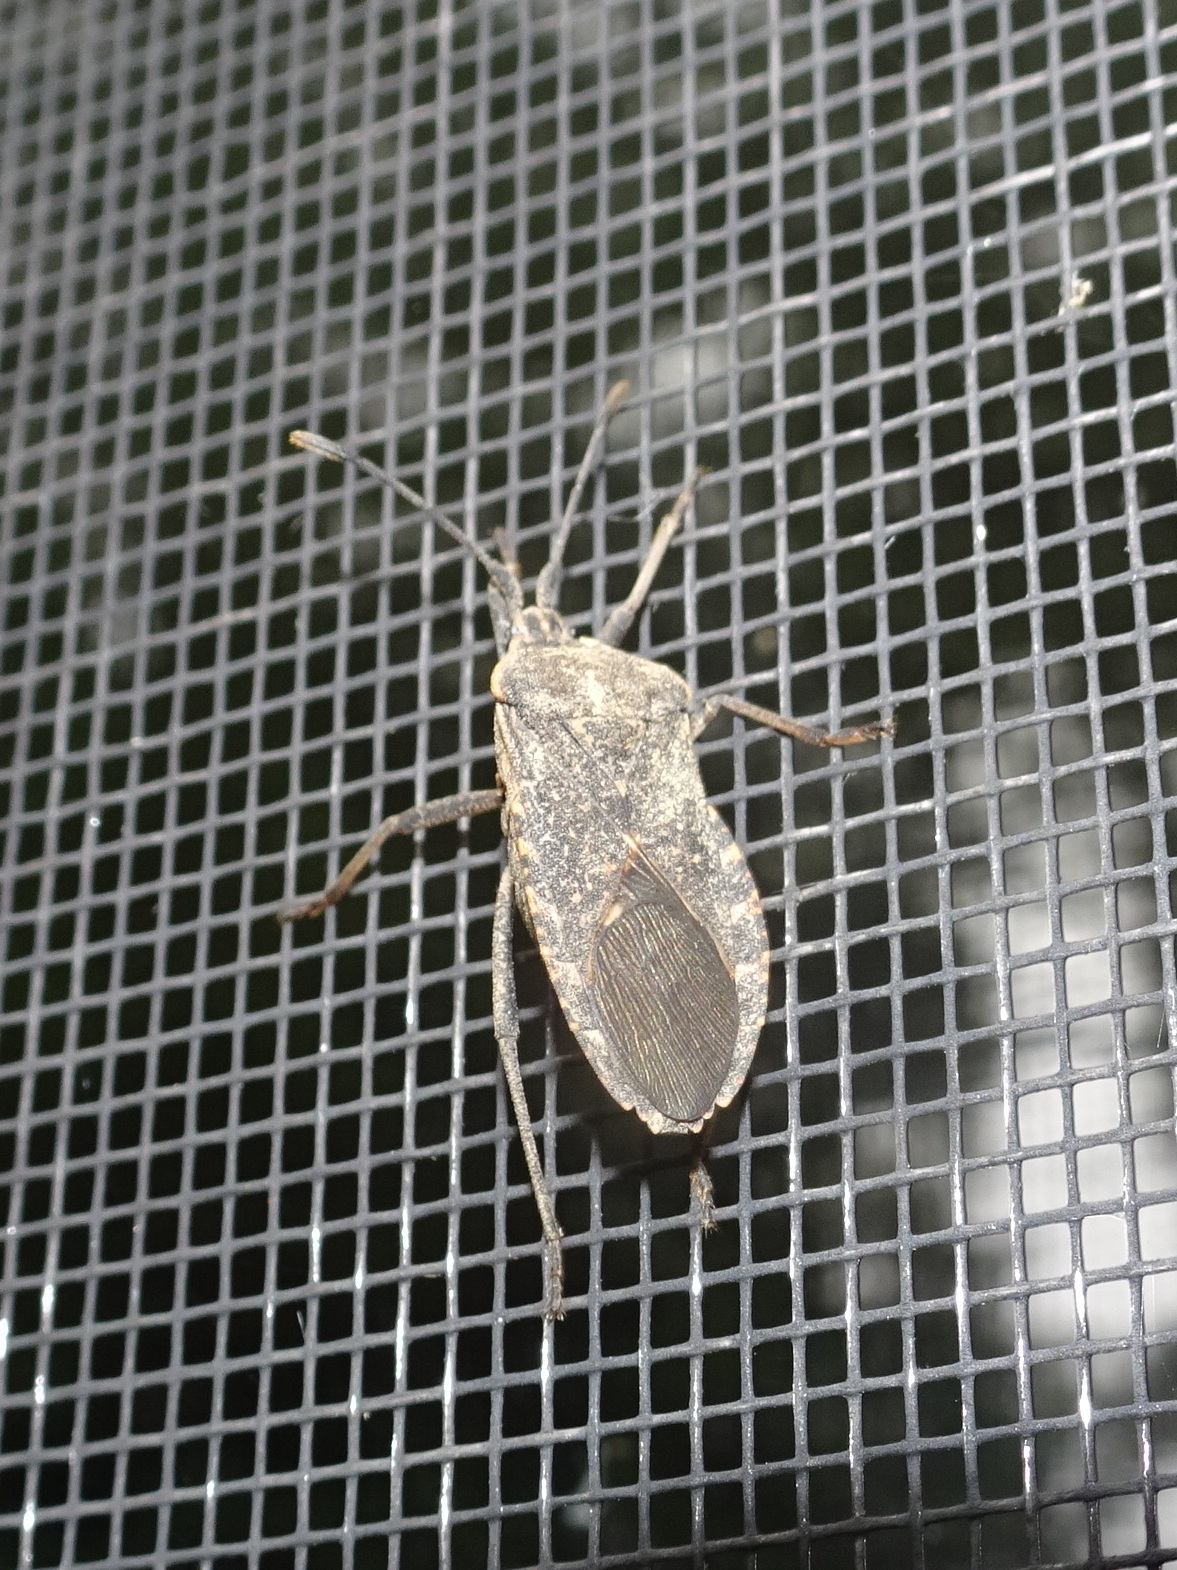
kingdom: Animalia
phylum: Arthropoda
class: Insecta
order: Hemiptera
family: Coreidae
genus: Anasa
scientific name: Anasa tristis
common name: Squash bug
